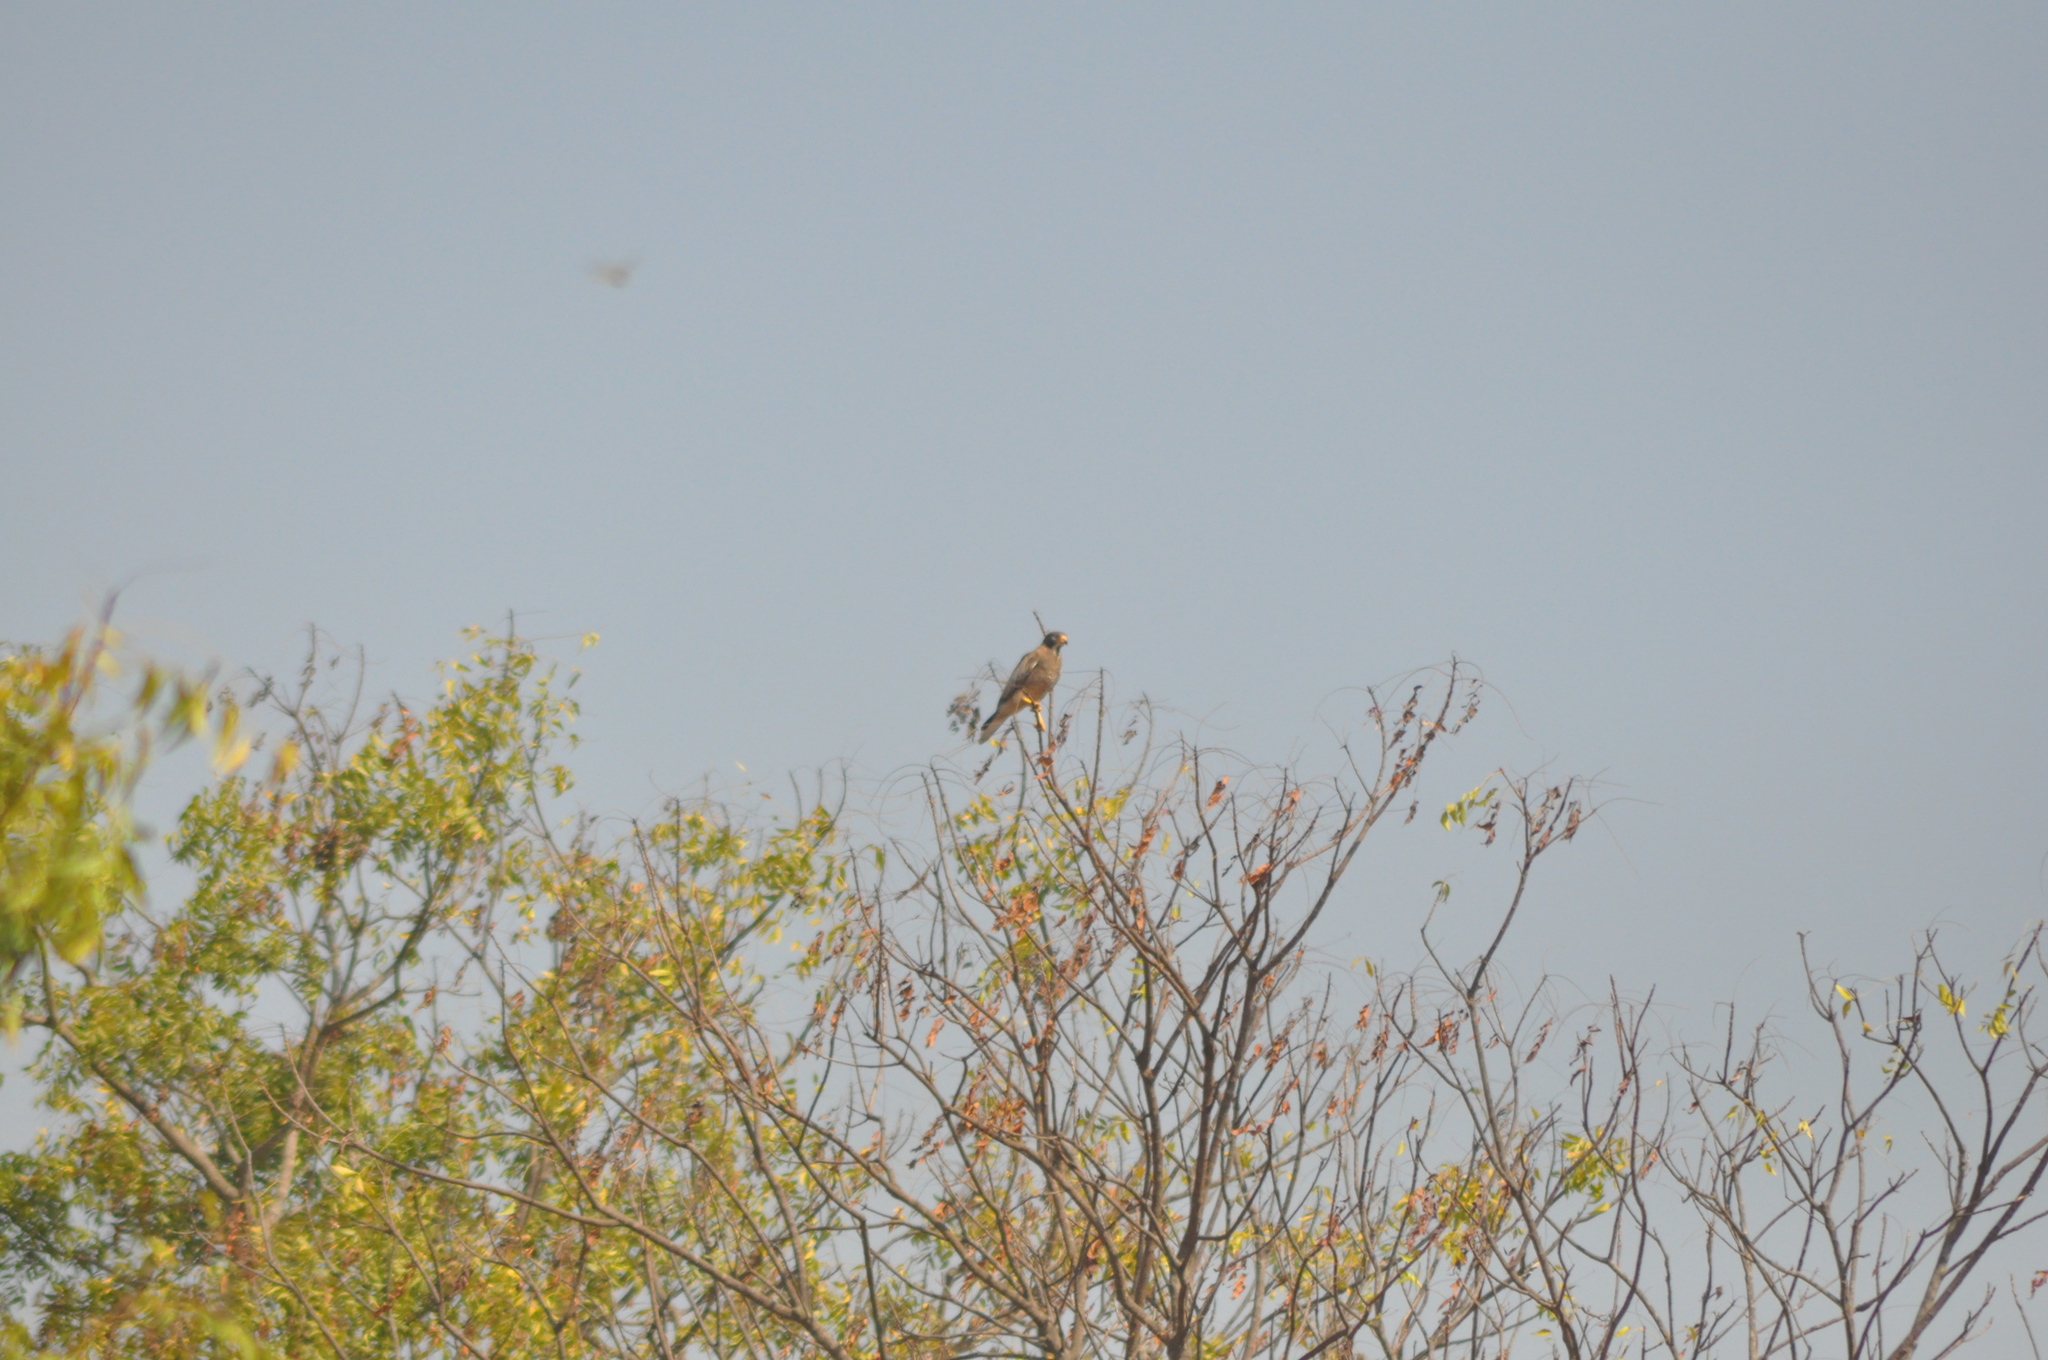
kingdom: Animalia
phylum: Chordata
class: Aves
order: Accipitriformes
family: Accipitridae
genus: Butastur
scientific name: Butastur teesa
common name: White-eyed buzzard
